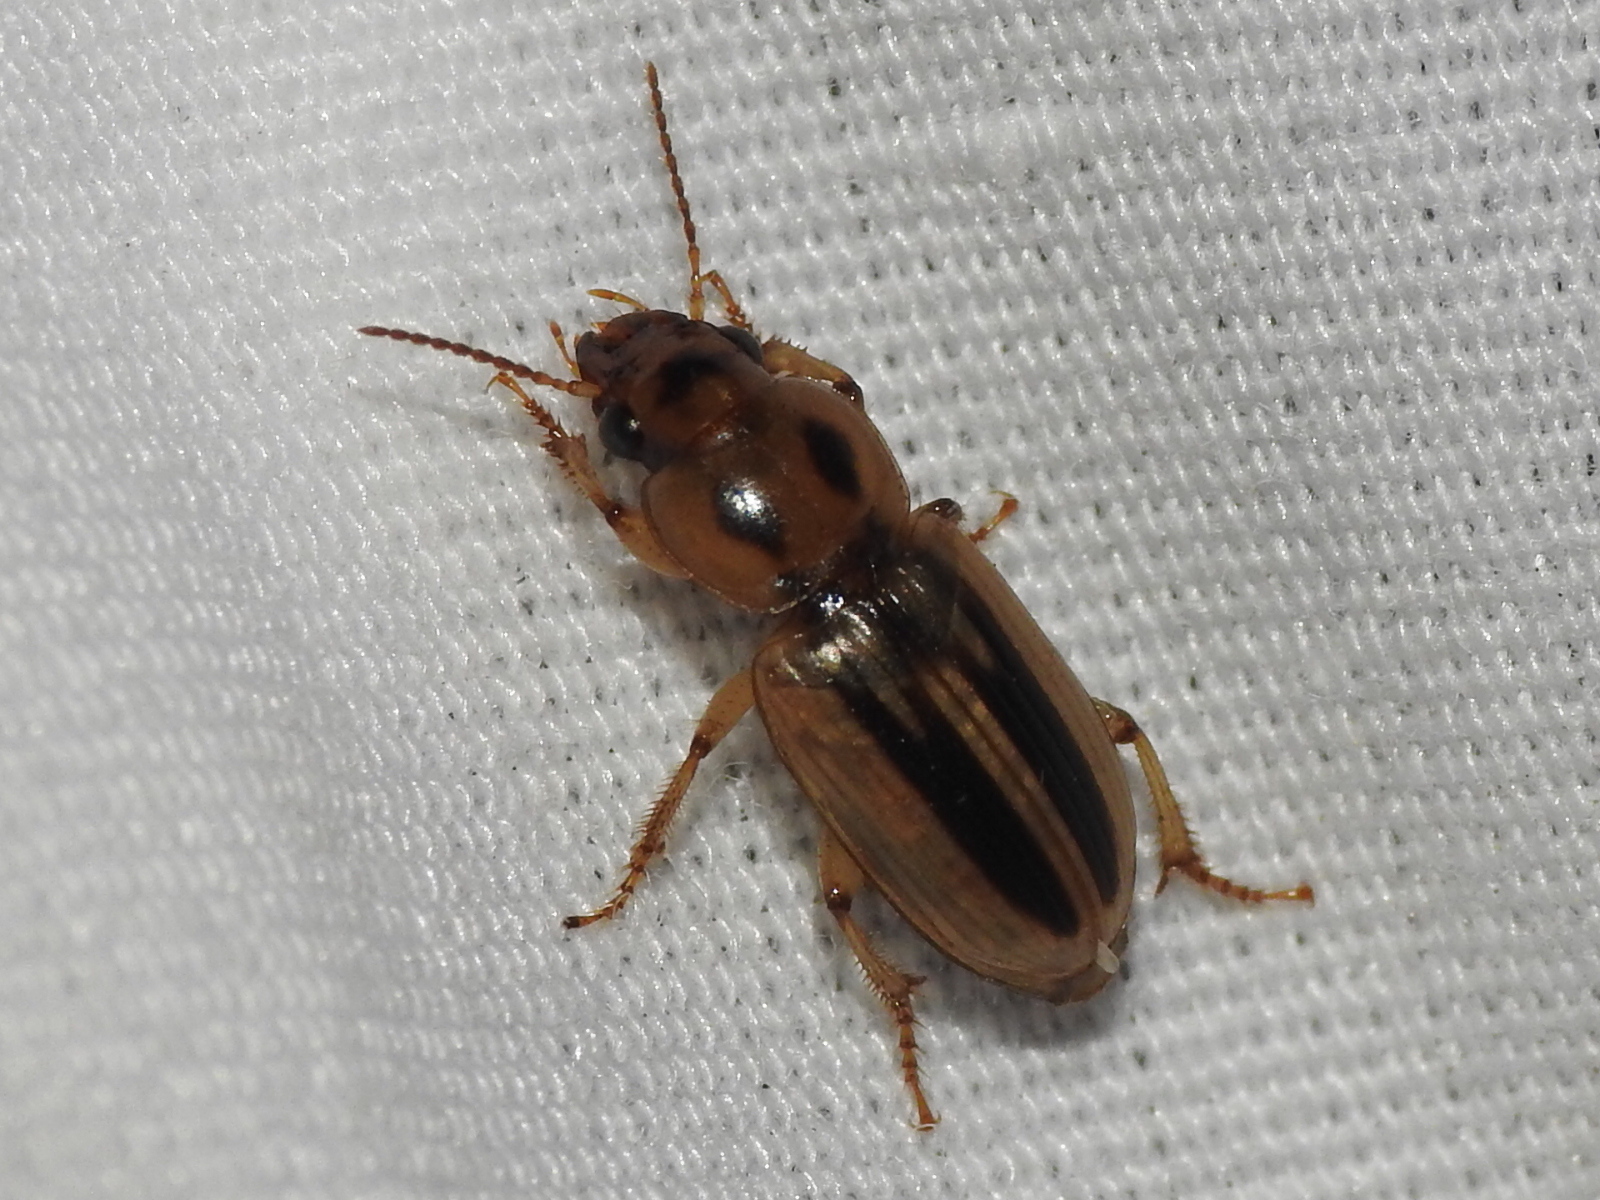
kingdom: Animalia
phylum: Arthropoda
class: Insecta
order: Coleoptera
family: Carabidae
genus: Stenolophus
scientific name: Stenolophus lineola
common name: Lined stenolophus
